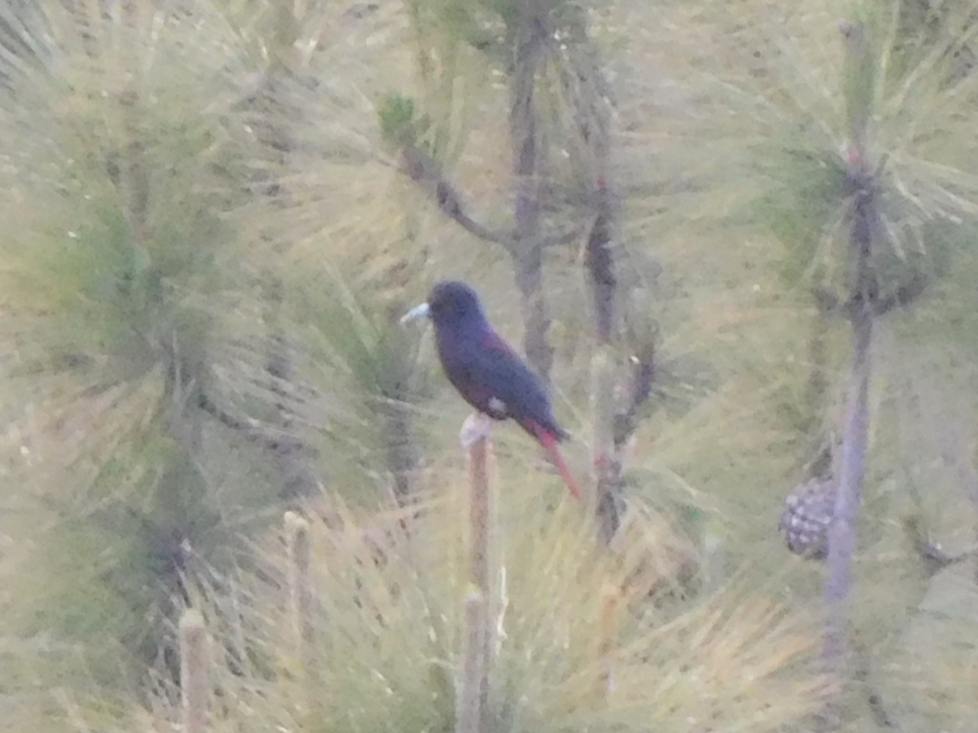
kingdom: Animalia
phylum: Chordata
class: Aves
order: Passeriformes
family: Oriolidae
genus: Oriolus
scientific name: Oriolus traillii
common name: Maroon oriole
